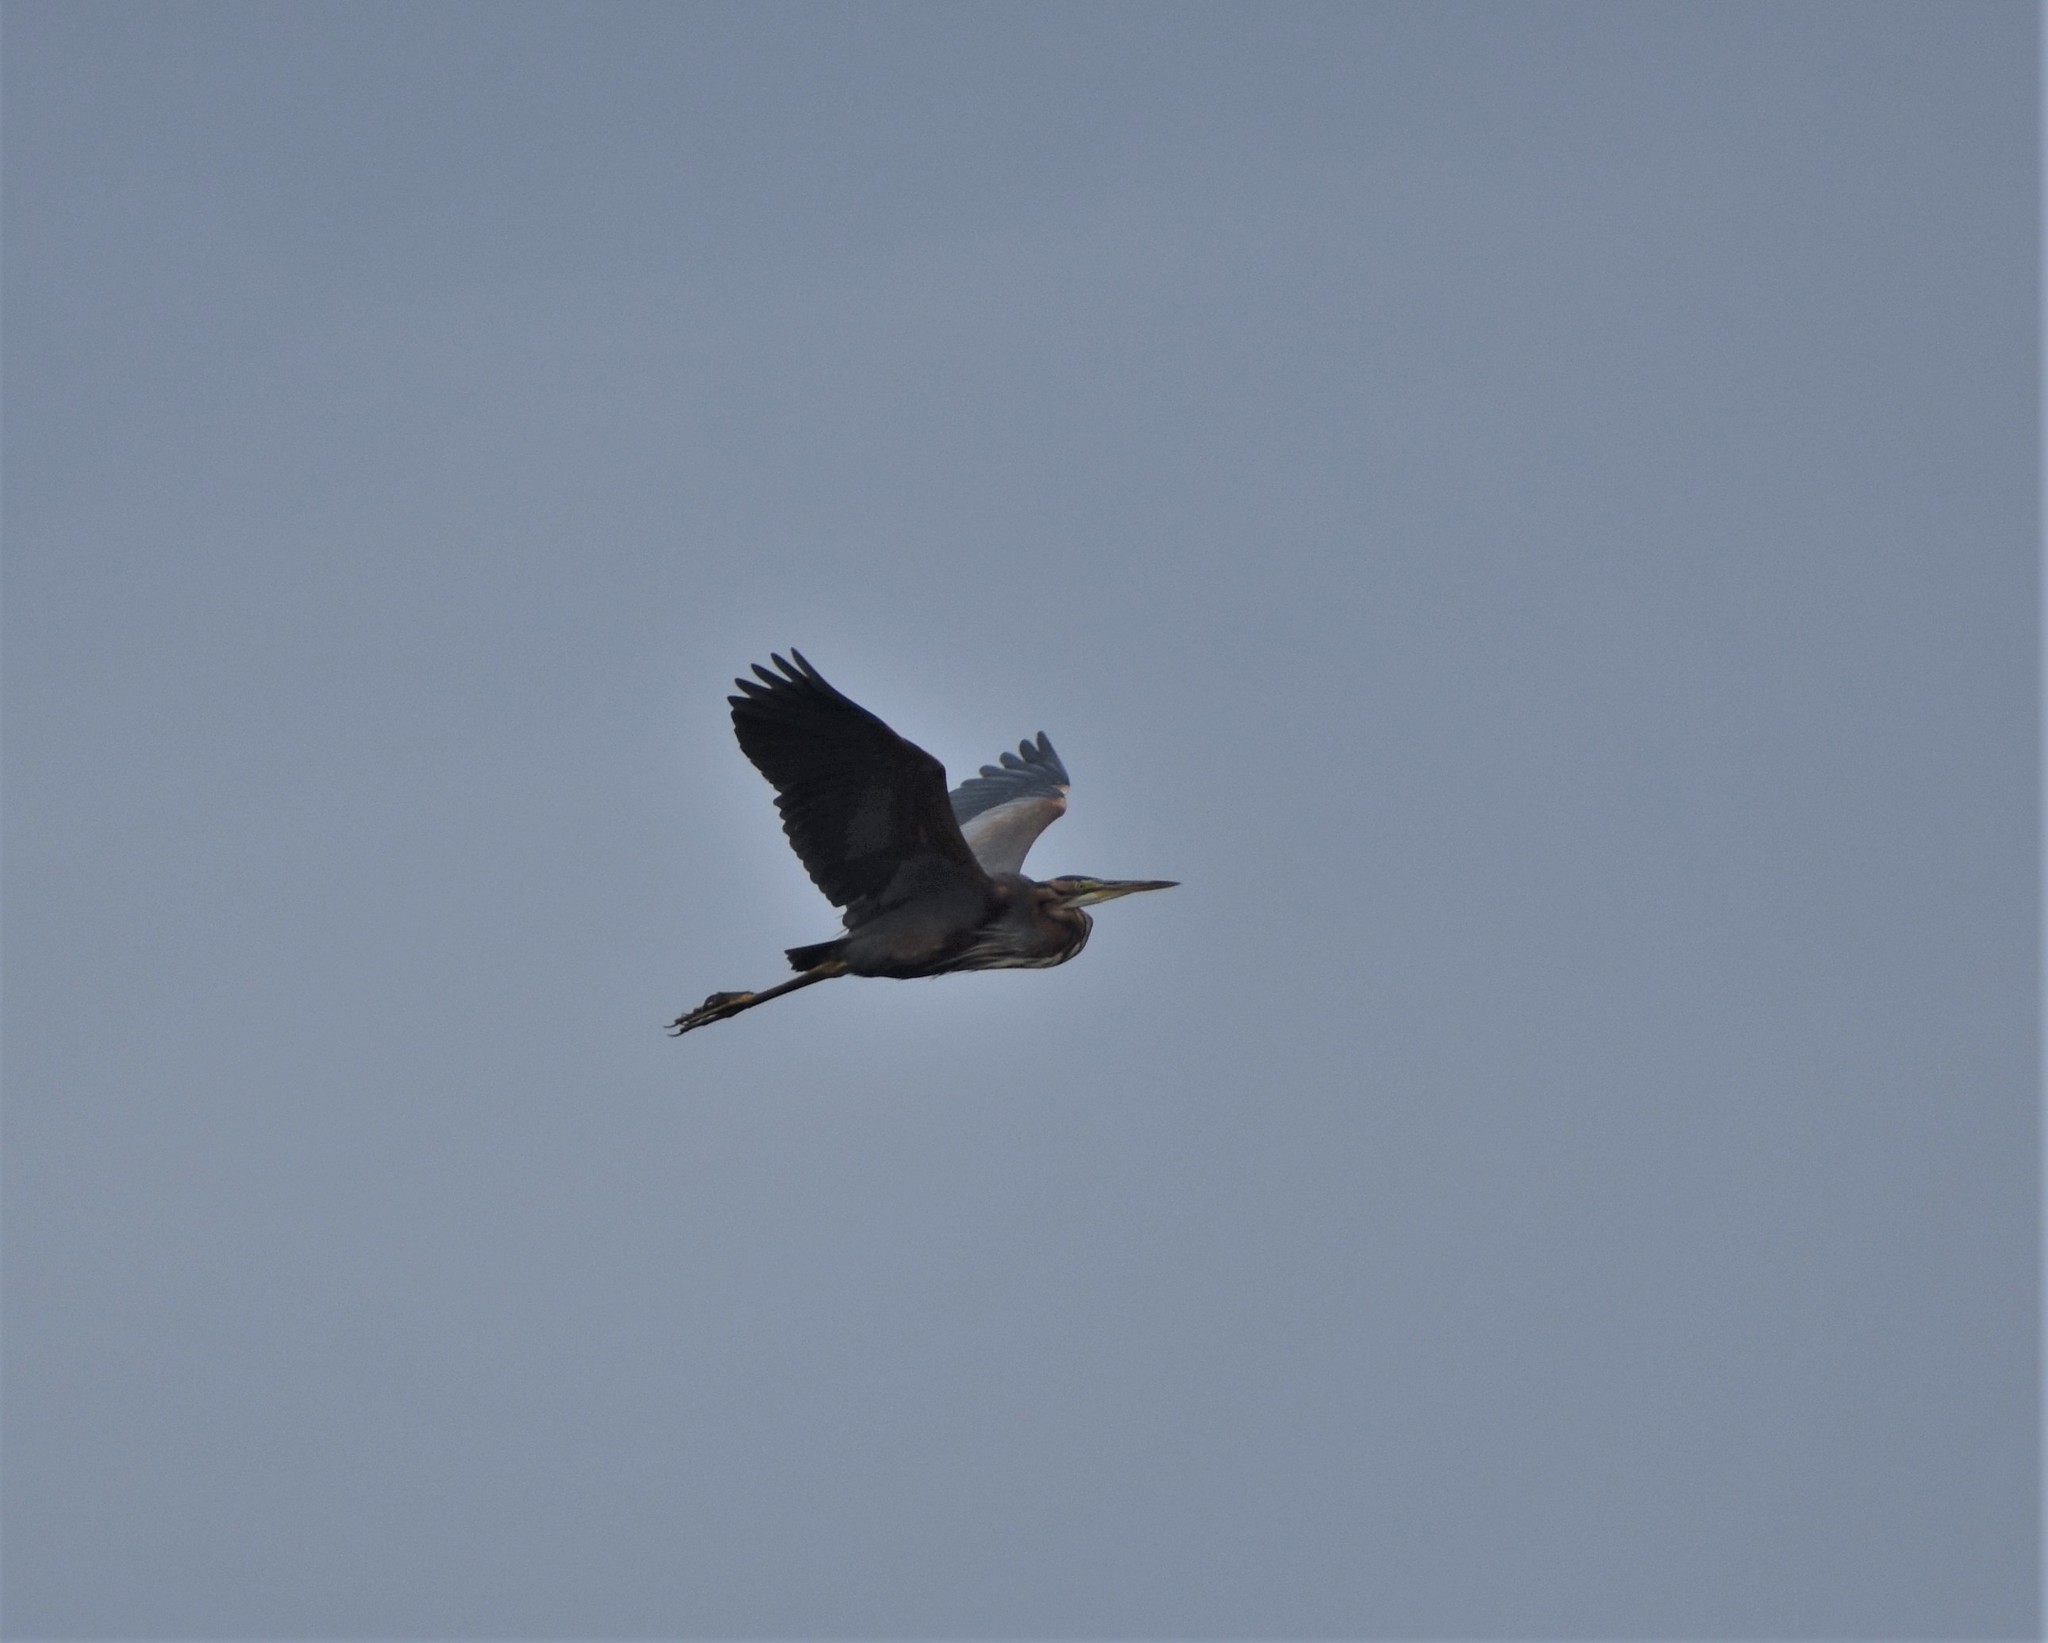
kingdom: Animalia
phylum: Chordata
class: Aves
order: Pelecaniformes
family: Ardeidae
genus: Ardea
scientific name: Ardea purpurea
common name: Purple heron
